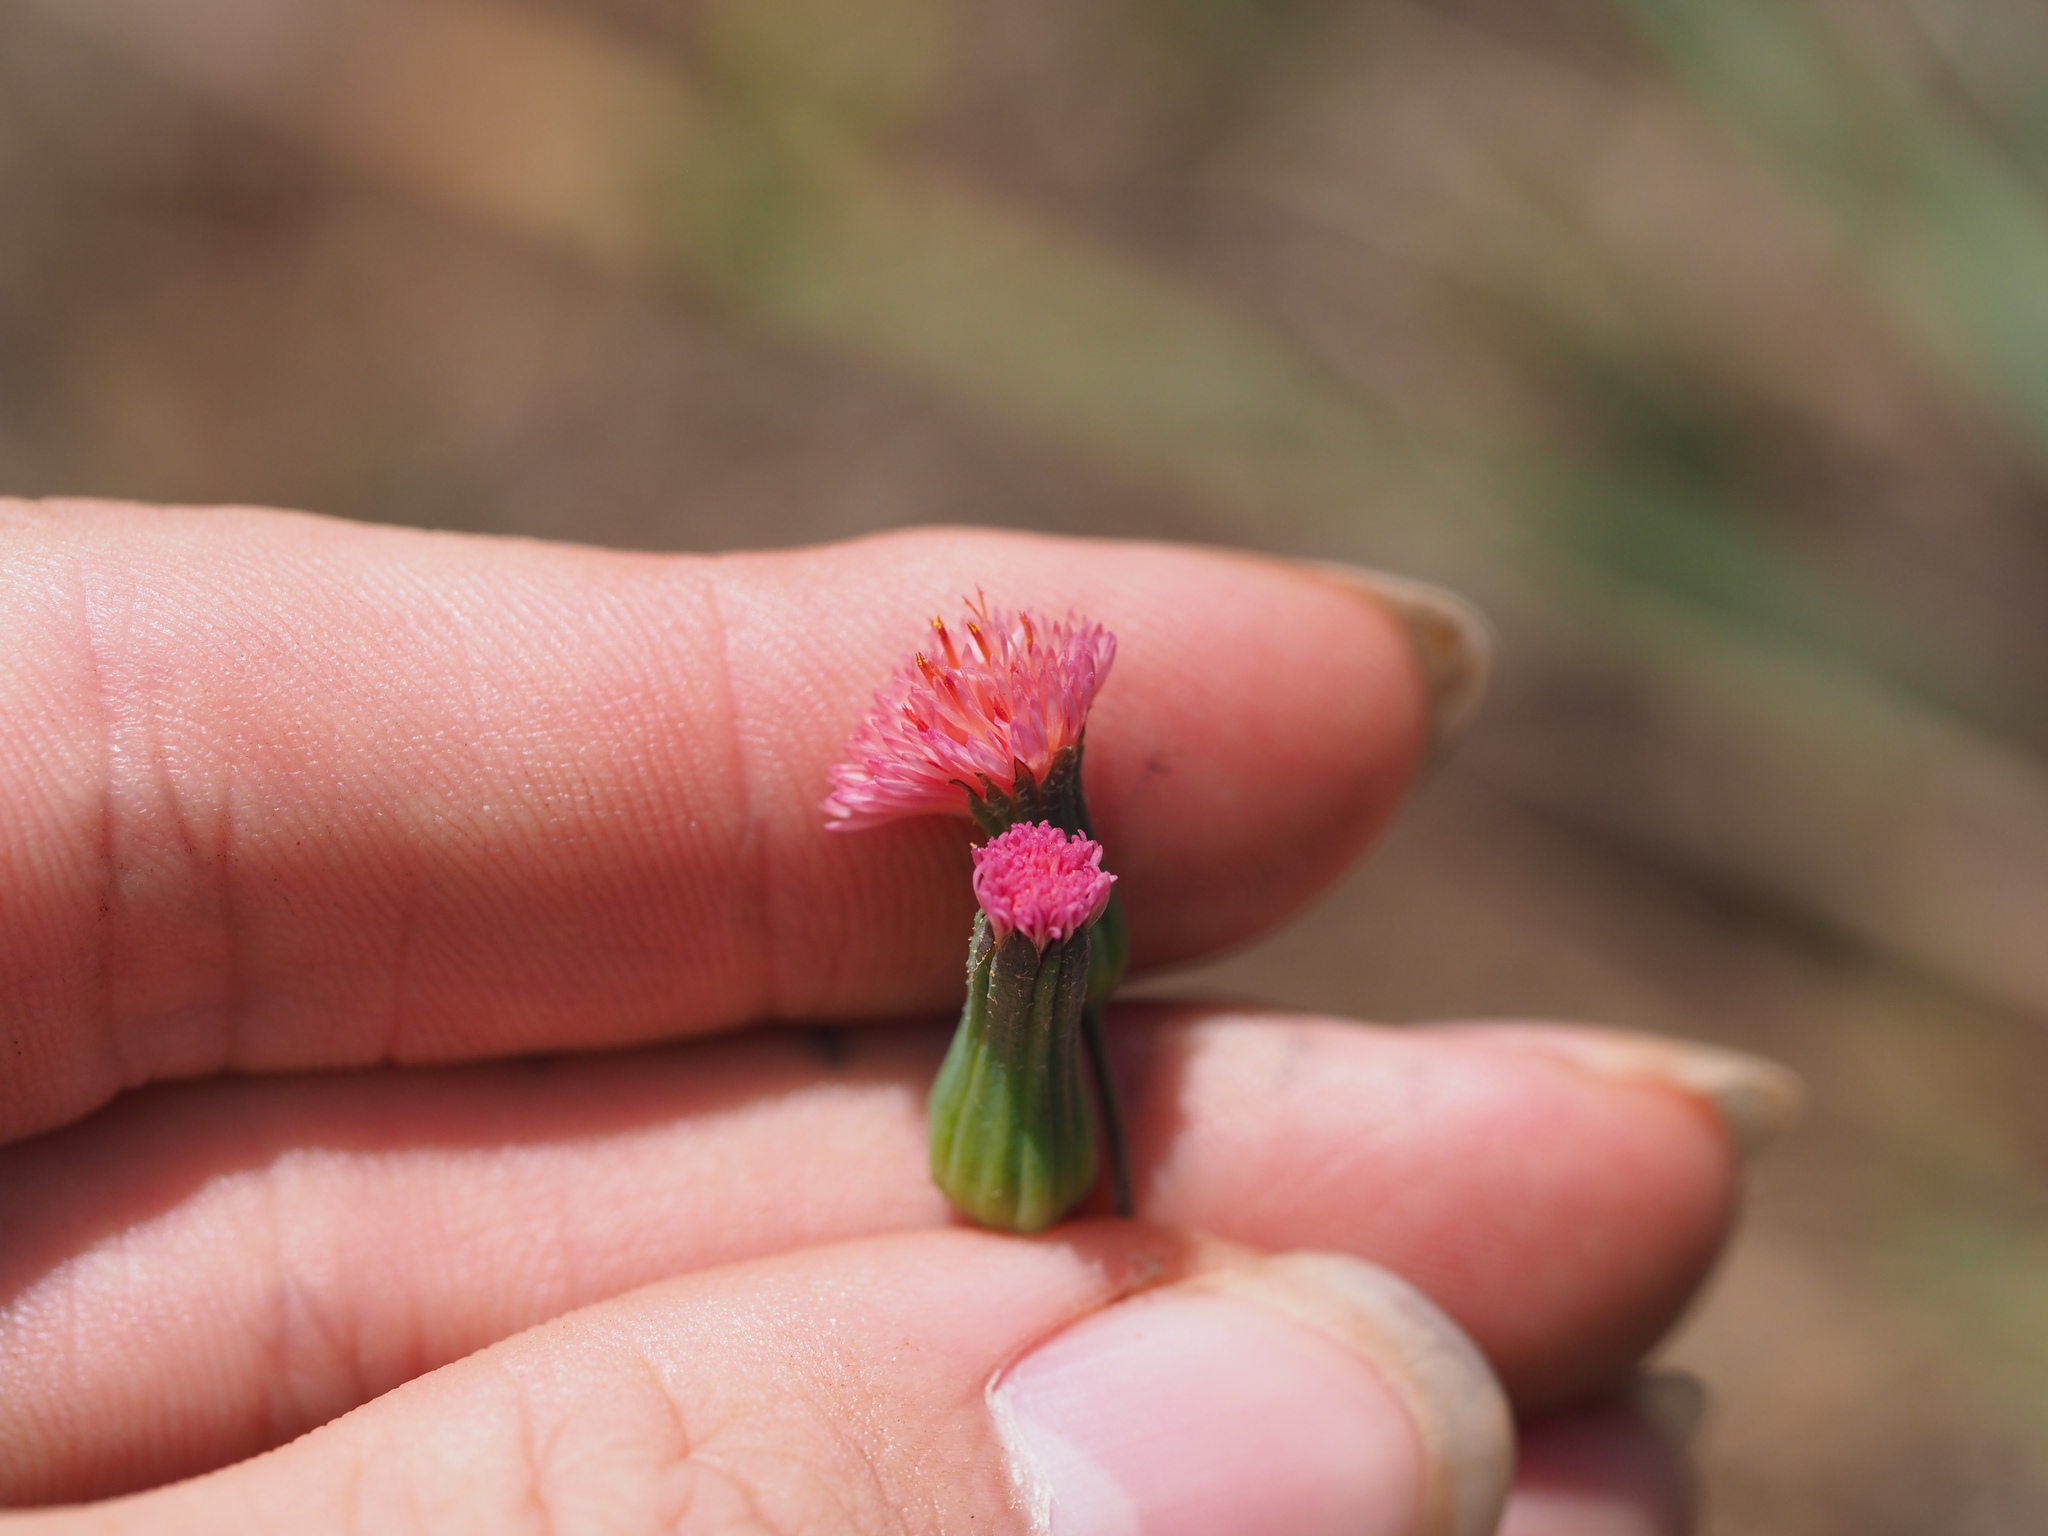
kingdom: Plantae
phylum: Tracheophyta
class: Magnoliopsida
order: Asterales
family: Asteraceae
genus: Emilia
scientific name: Emilia fosbergii
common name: Florida tasselflower
